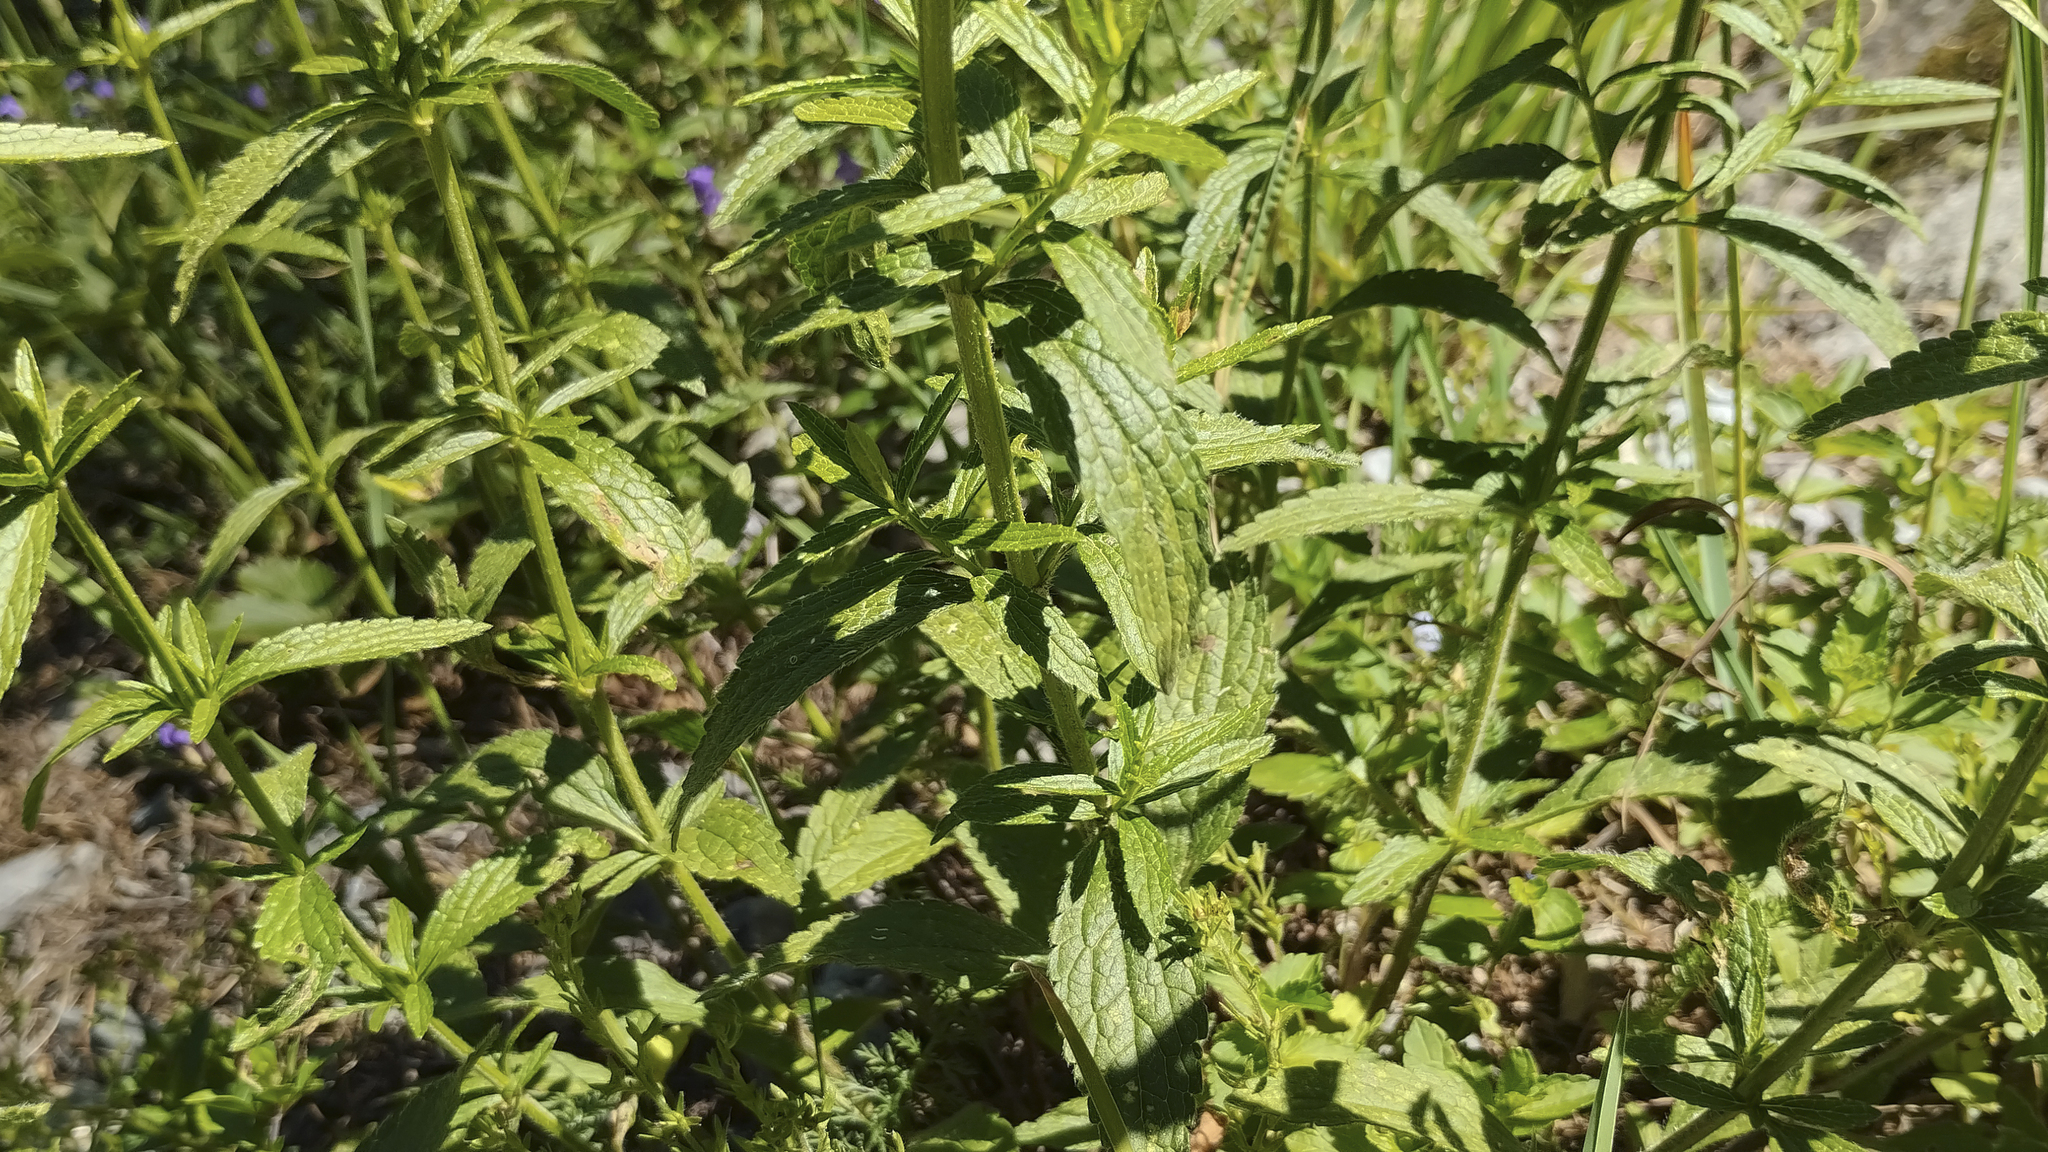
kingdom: Plantae
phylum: Tracheophyta
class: Magnoliopsida
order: Lamiales
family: Lamiaceae
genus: Stachys
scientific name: Stachys recta
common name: Perennial yellow-woundwort
